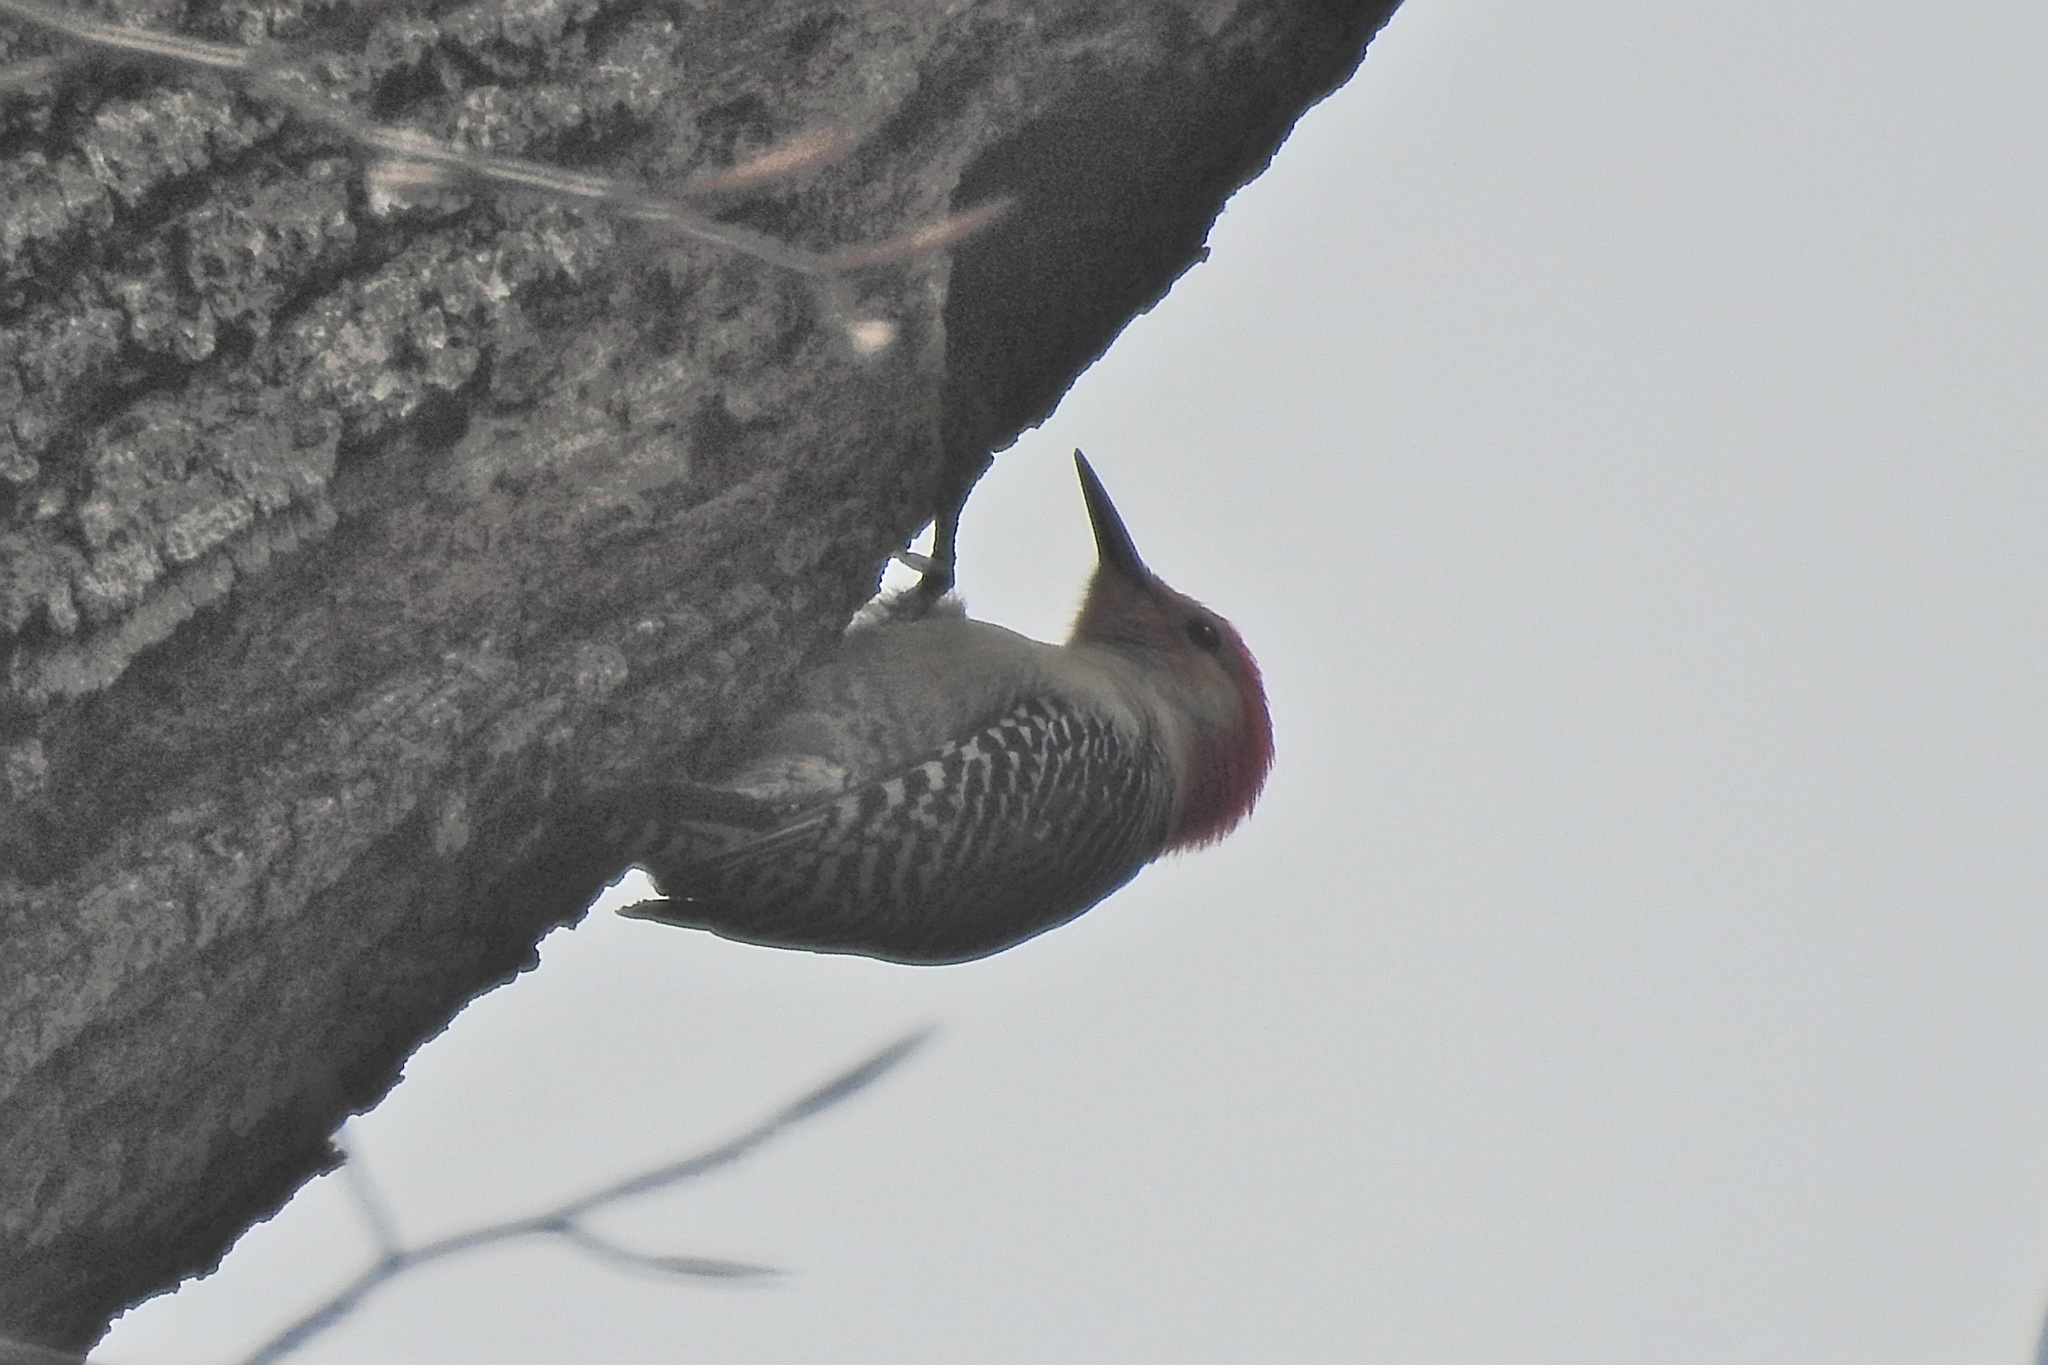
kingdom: Animalia
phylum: Chordata
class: Aves
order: Piciformes
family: Picidae
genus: Melanerpes
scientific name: Melanerpes carolinus
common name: Red-bellied woodpecker
